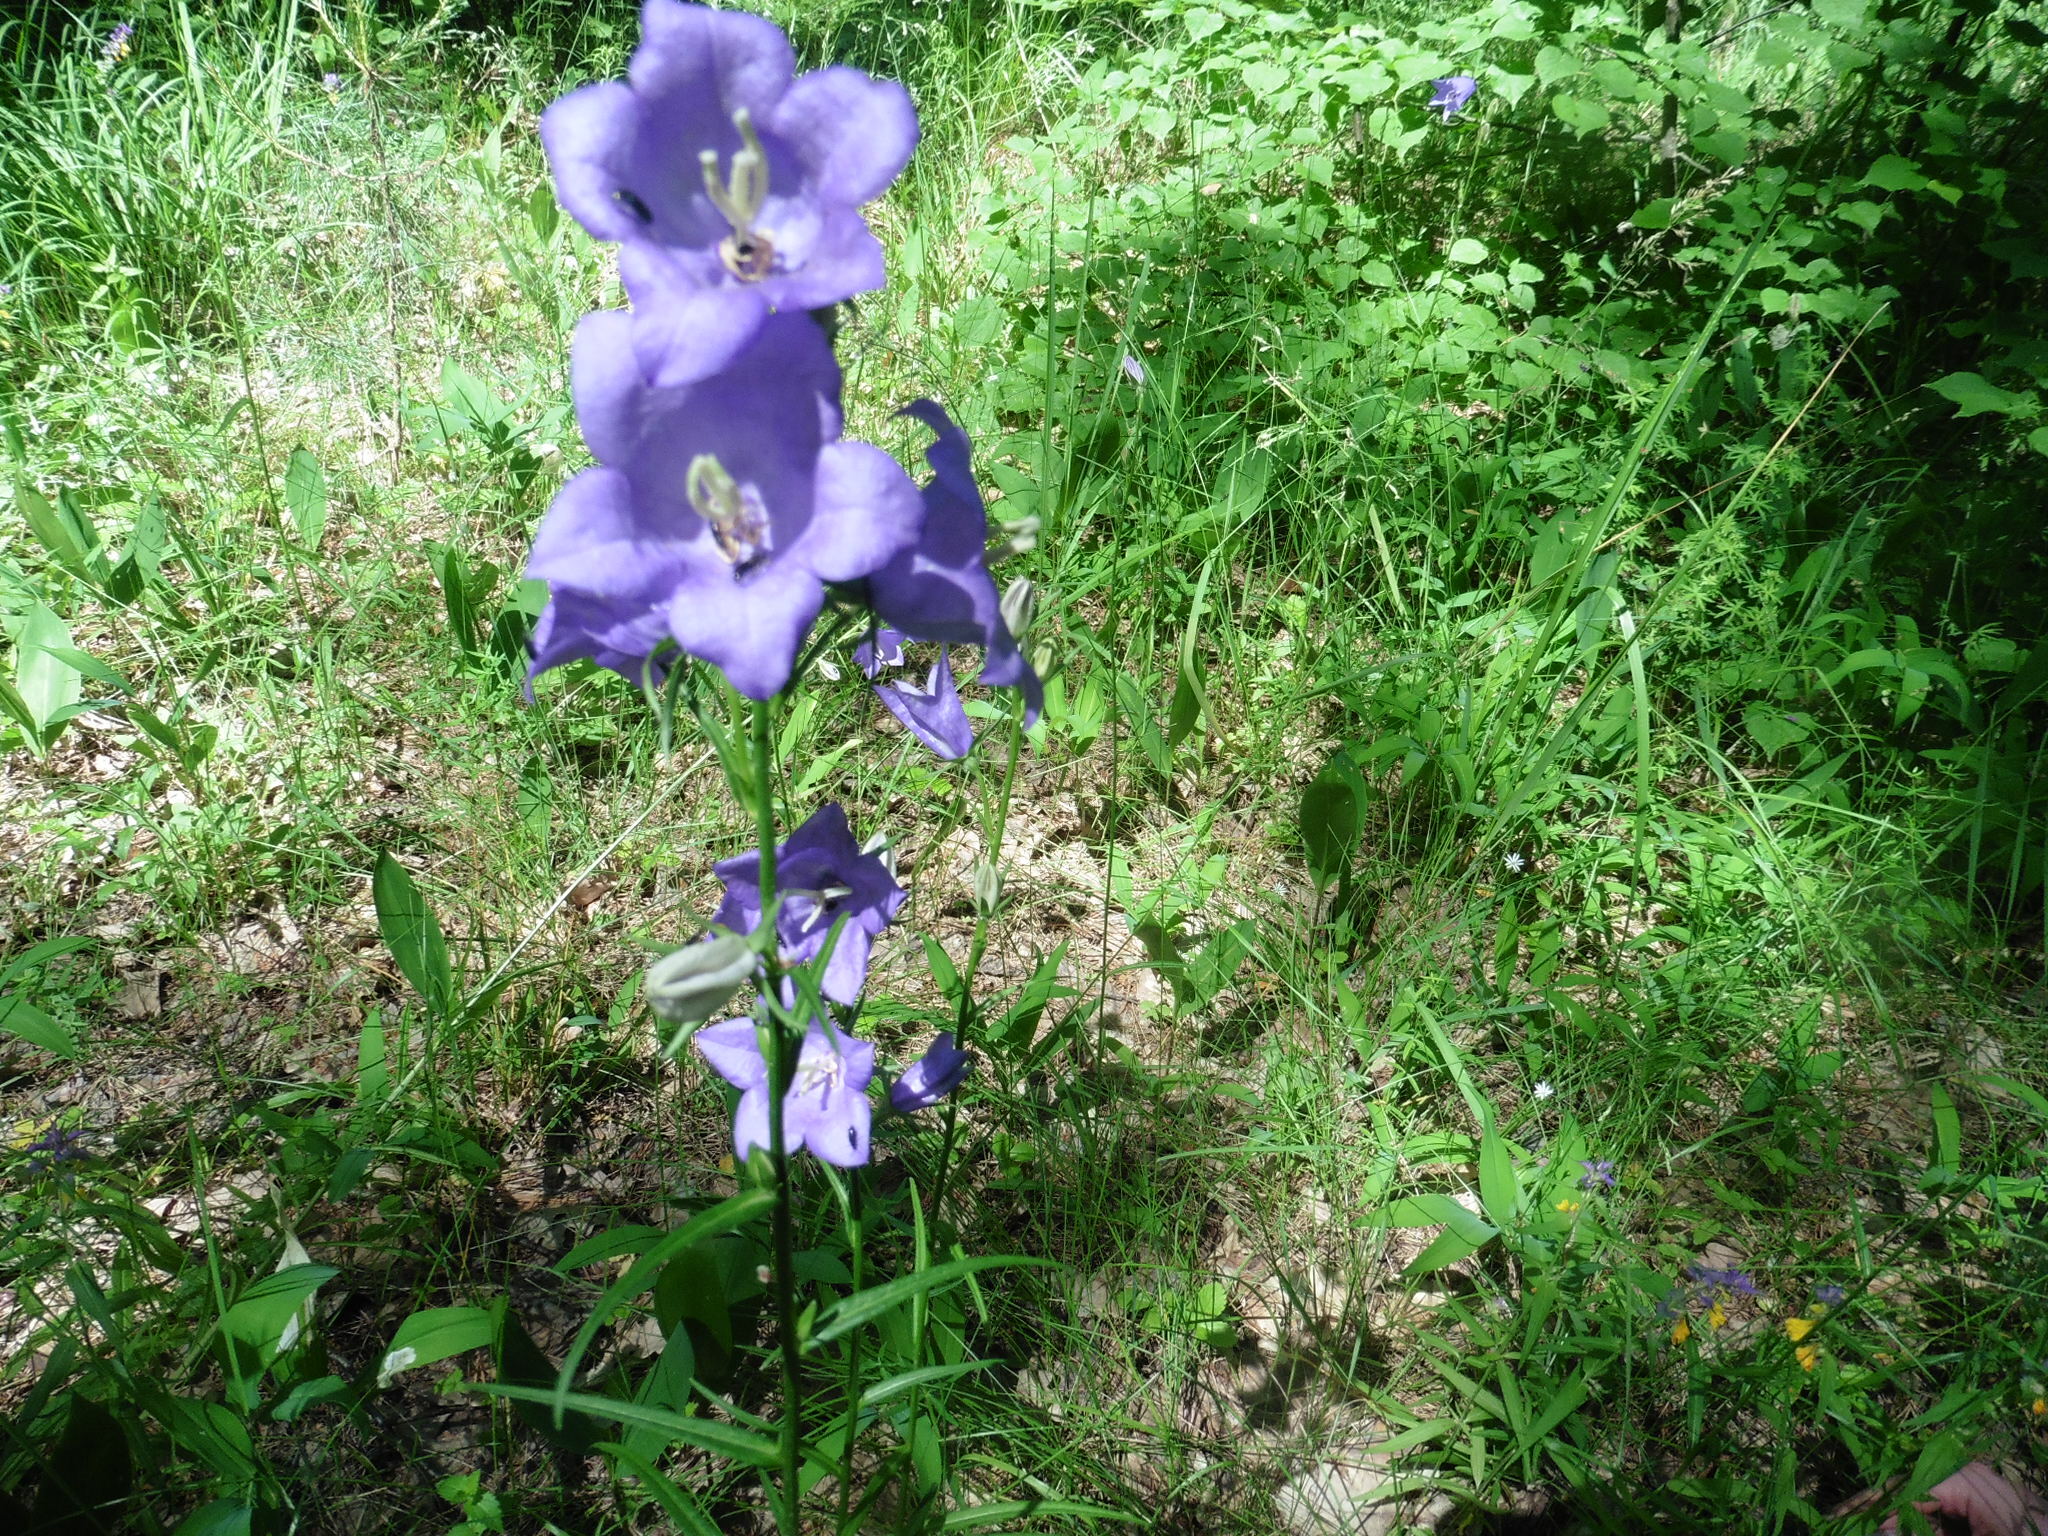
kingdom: Plantae
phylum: Tracheophyta
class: Magnoliopsida
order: Asterales
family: Campanulaceae
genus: Campanula
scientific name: Campanula persicifolia
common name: Peach-leaved bellflower
